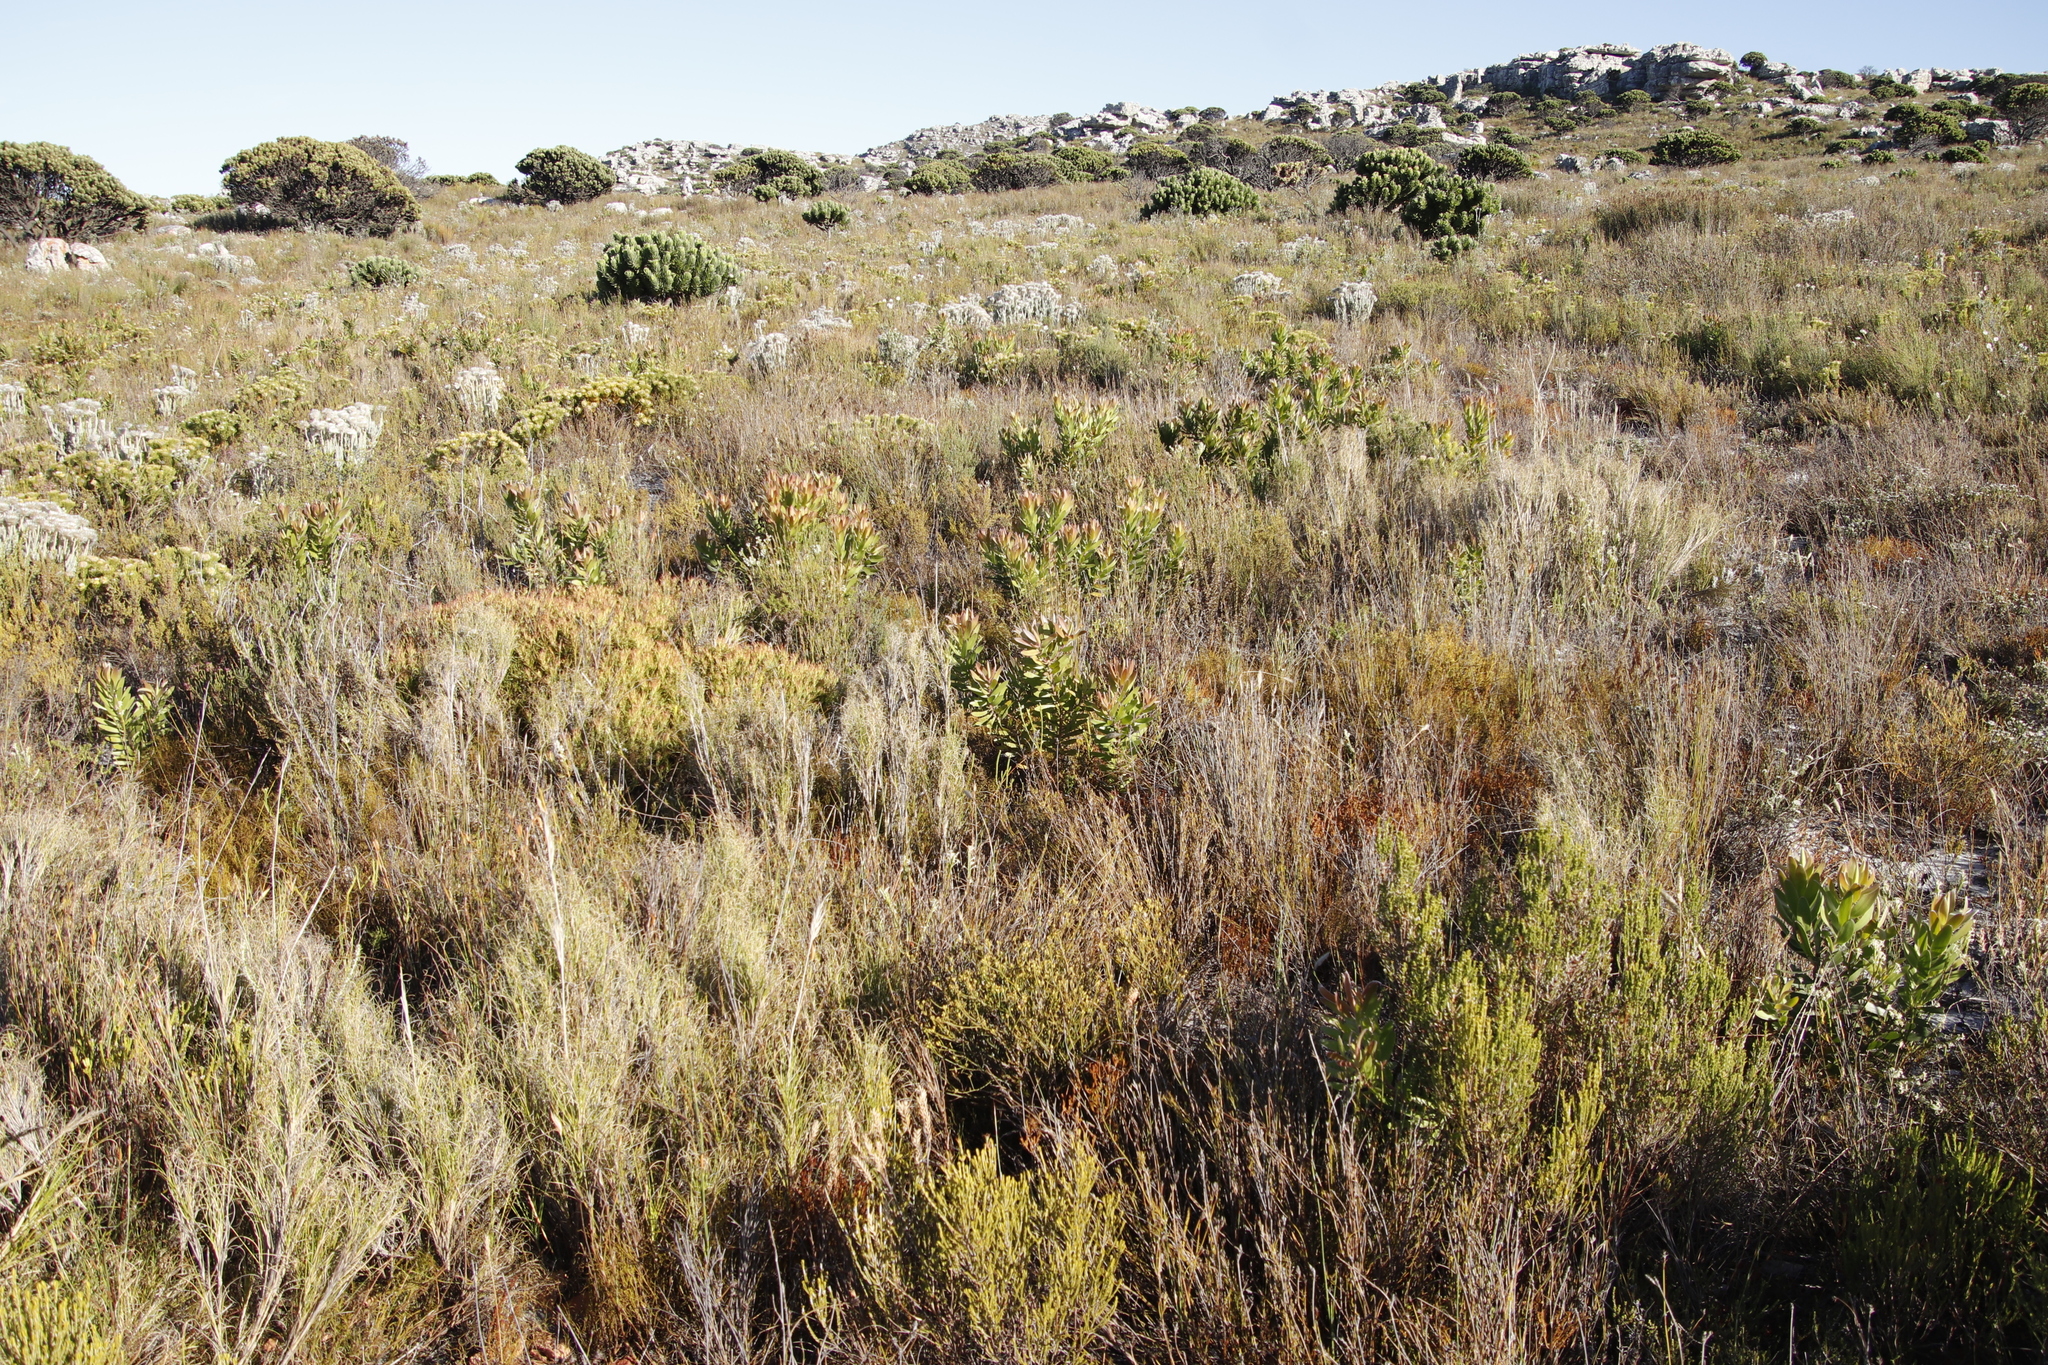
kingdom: Plantae
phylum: Tracheophyta
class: Magnoliopsida
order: Proteales
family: Proteaceae
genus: Leucadendron
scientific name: Leucadendron laureolum
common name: Golden sunshinebush
